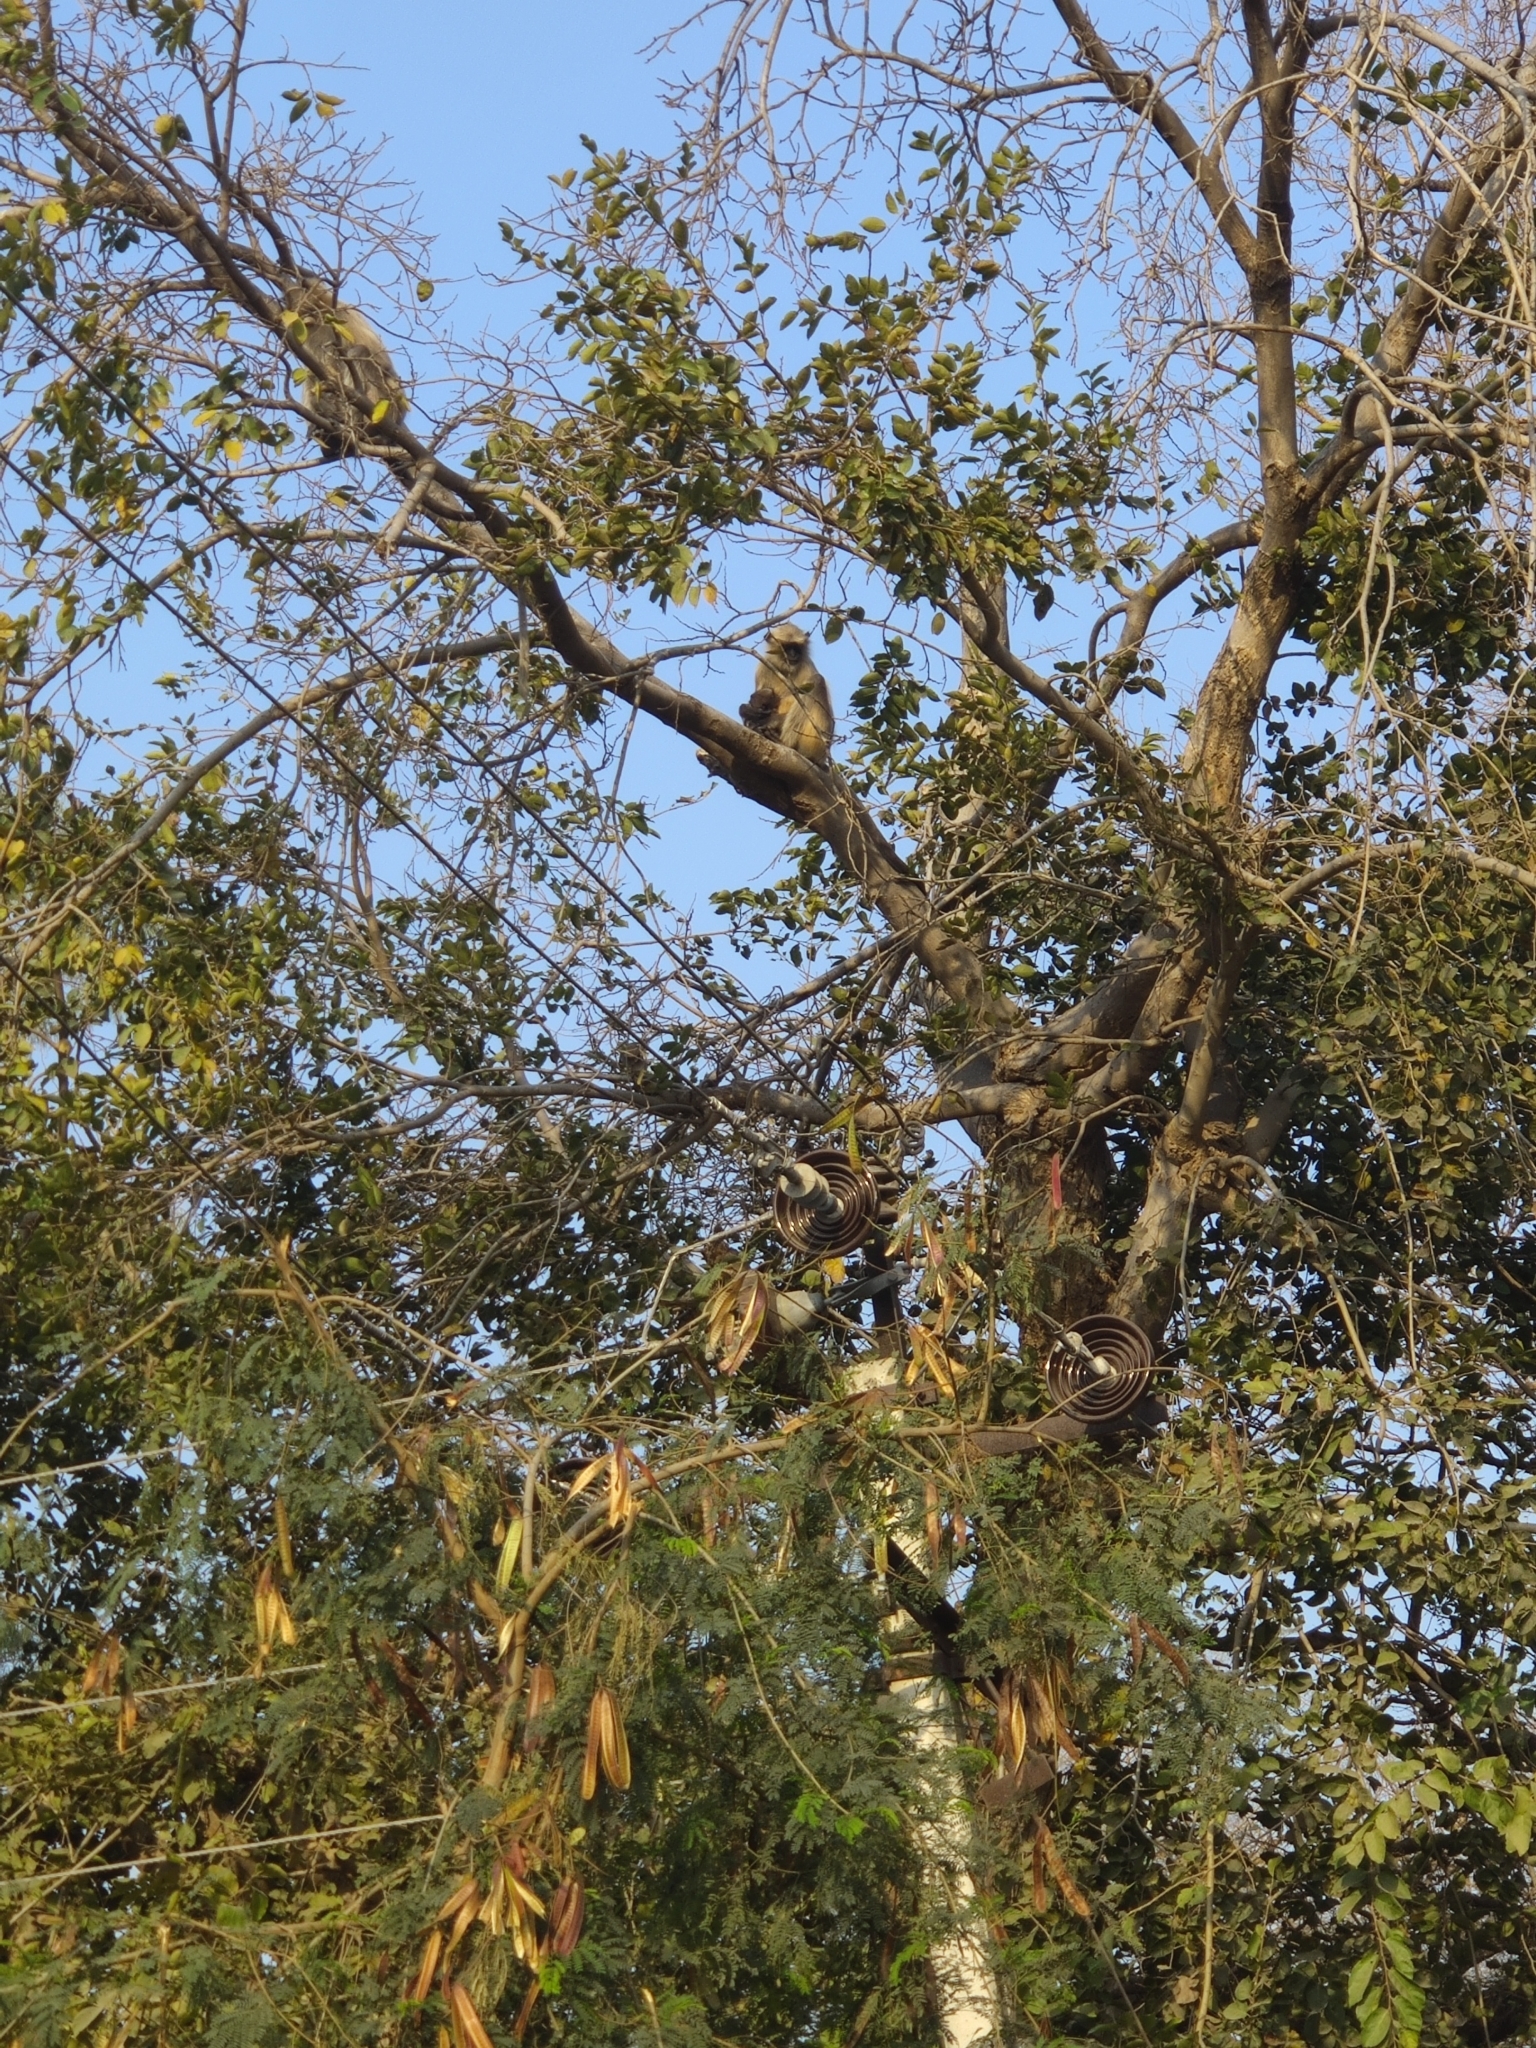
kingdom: Animalia
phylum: Chordata
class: Mammalia
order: Primates
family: Cercopithecidae
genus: Semnopithecus
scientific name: Semnopithecus entellus
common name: Northern plains gray langur
